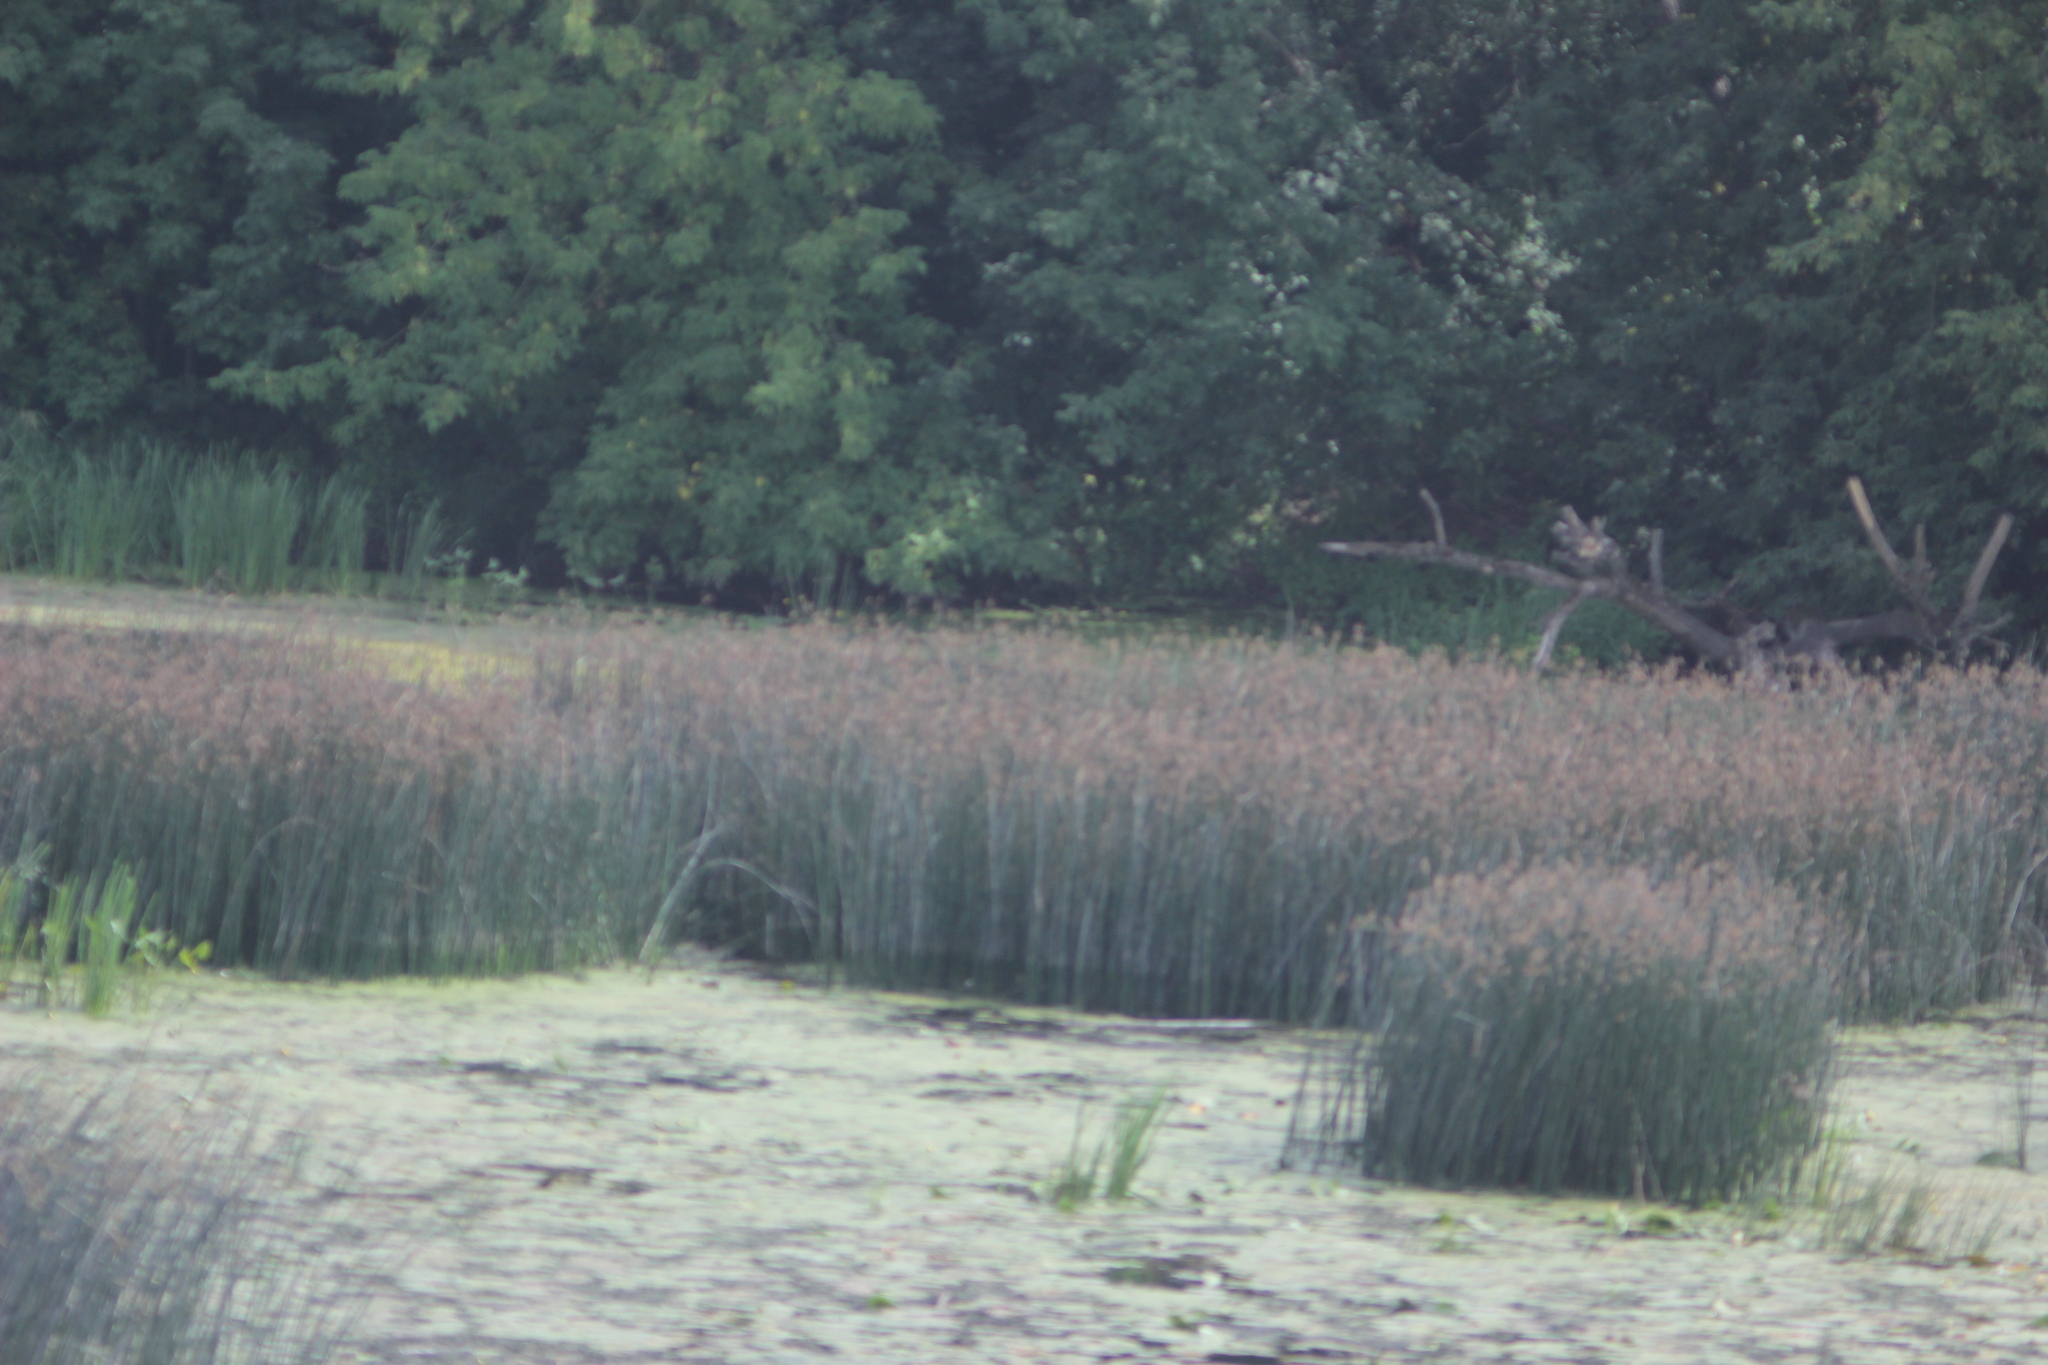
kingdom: Plantae
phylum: Tracheophyta
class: Liliopsida
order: Poales
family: Cyperaceae
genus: Schoenoplectus
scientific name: Schoenoplectus lacustris
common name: Common club-rush
